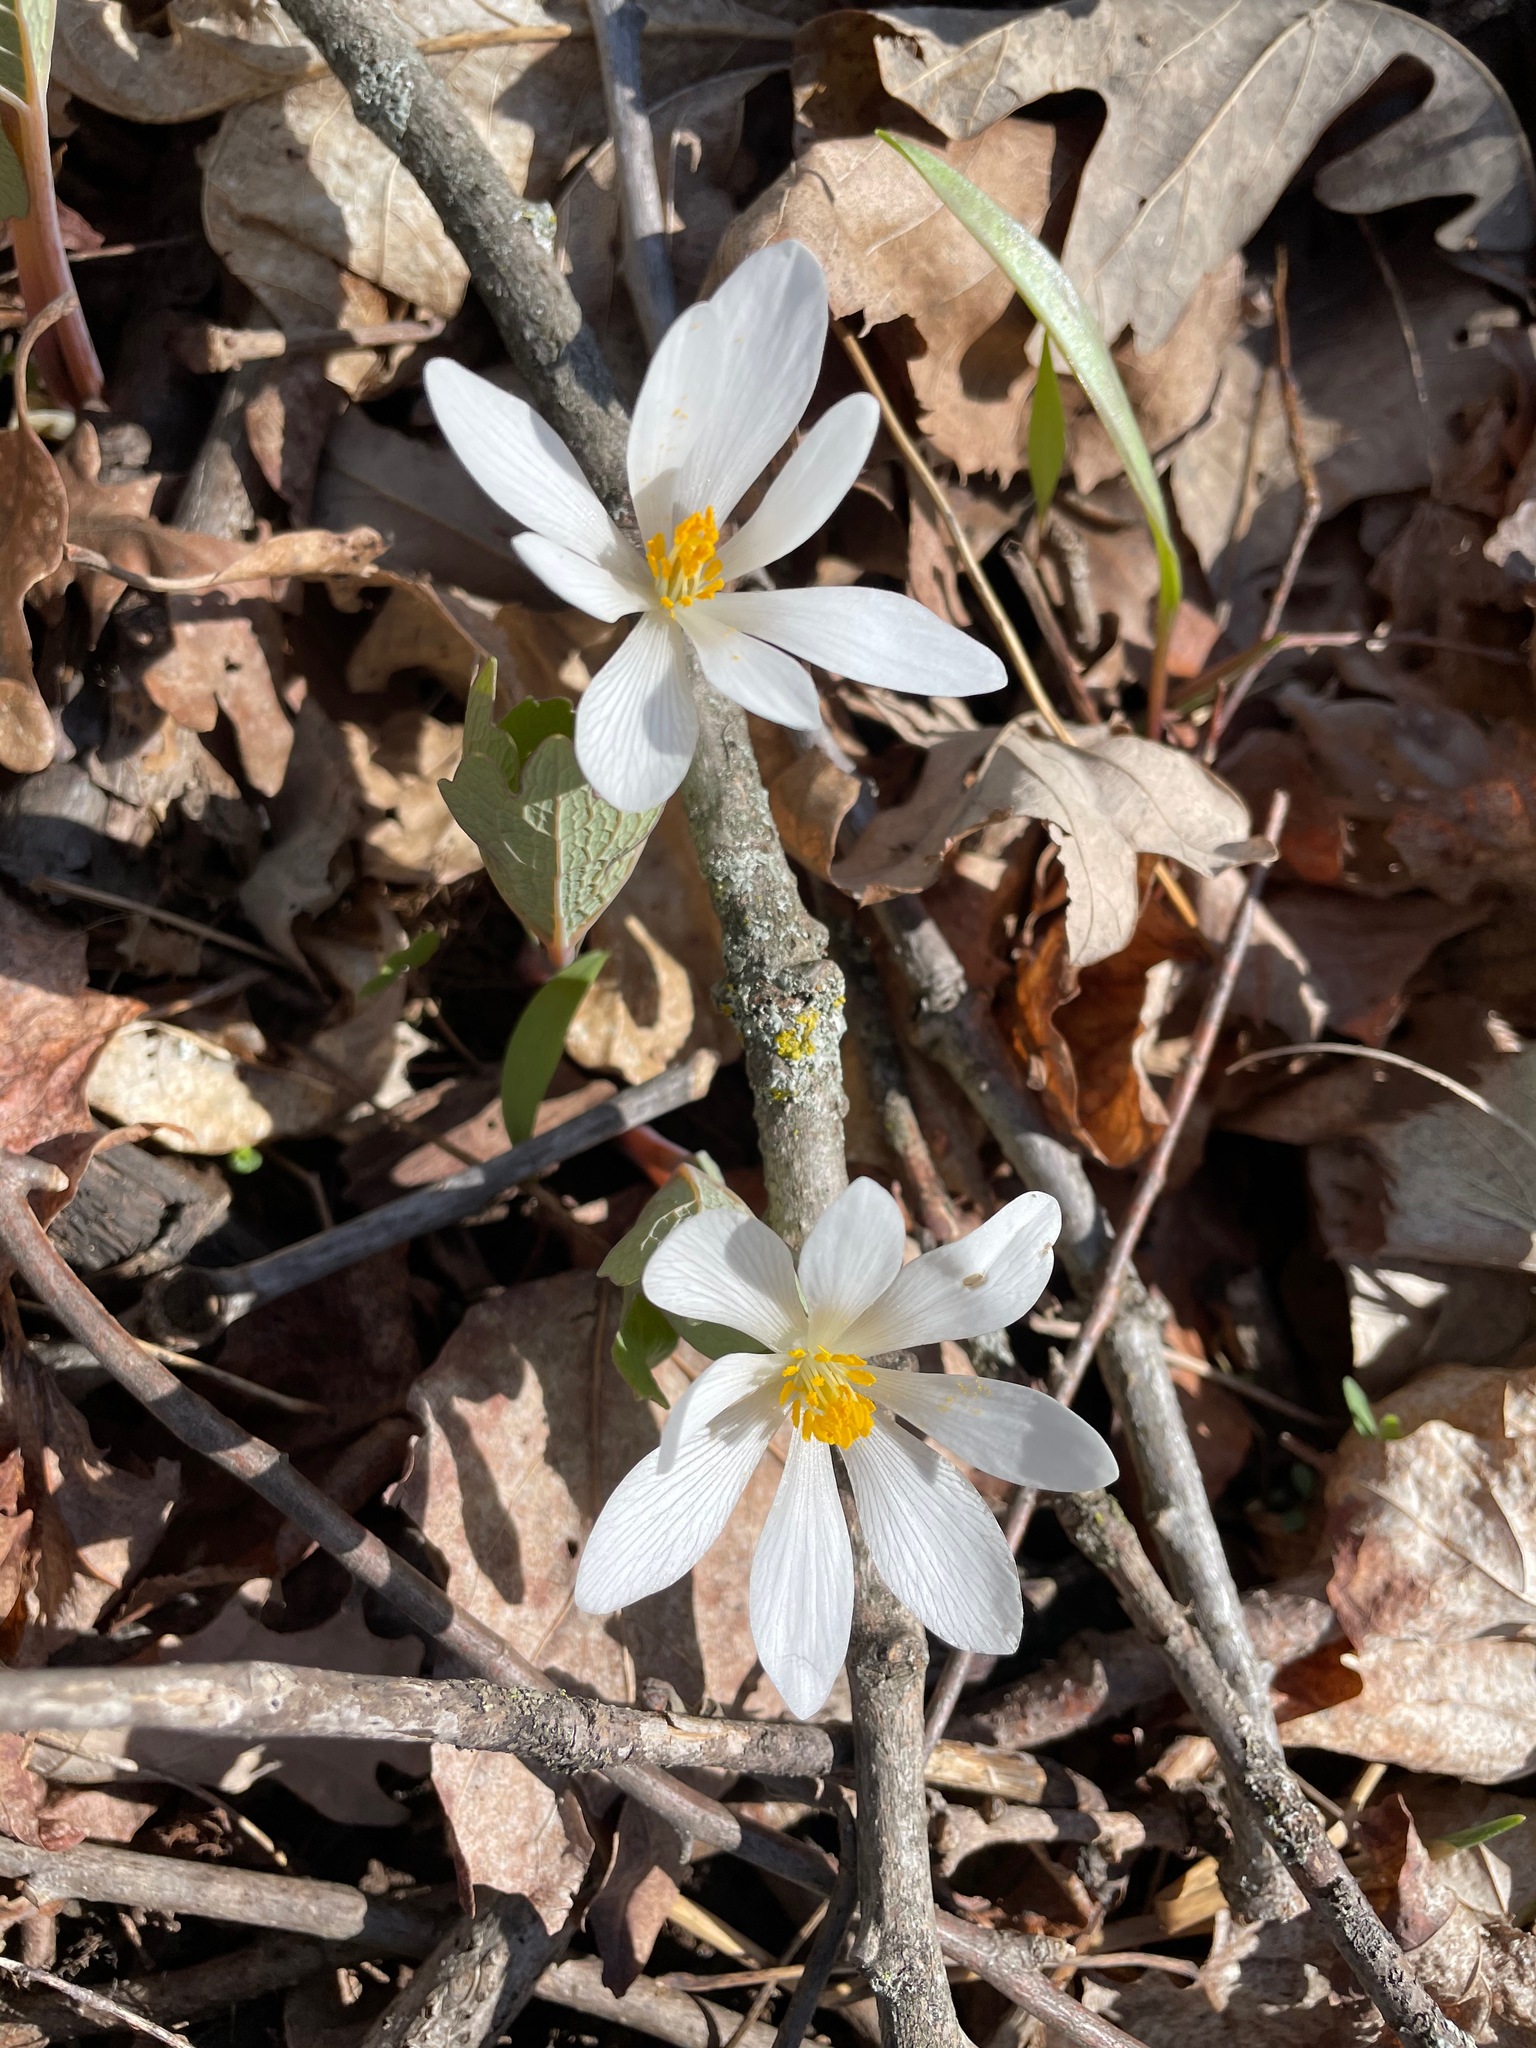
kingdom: Plantae
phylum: Tracheophyta
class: Magnoliopsida
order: Ranunculales
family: Papaveraceae
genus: Sanguinaria
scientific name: Sanguinaria canadensis
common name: Bloodroot
